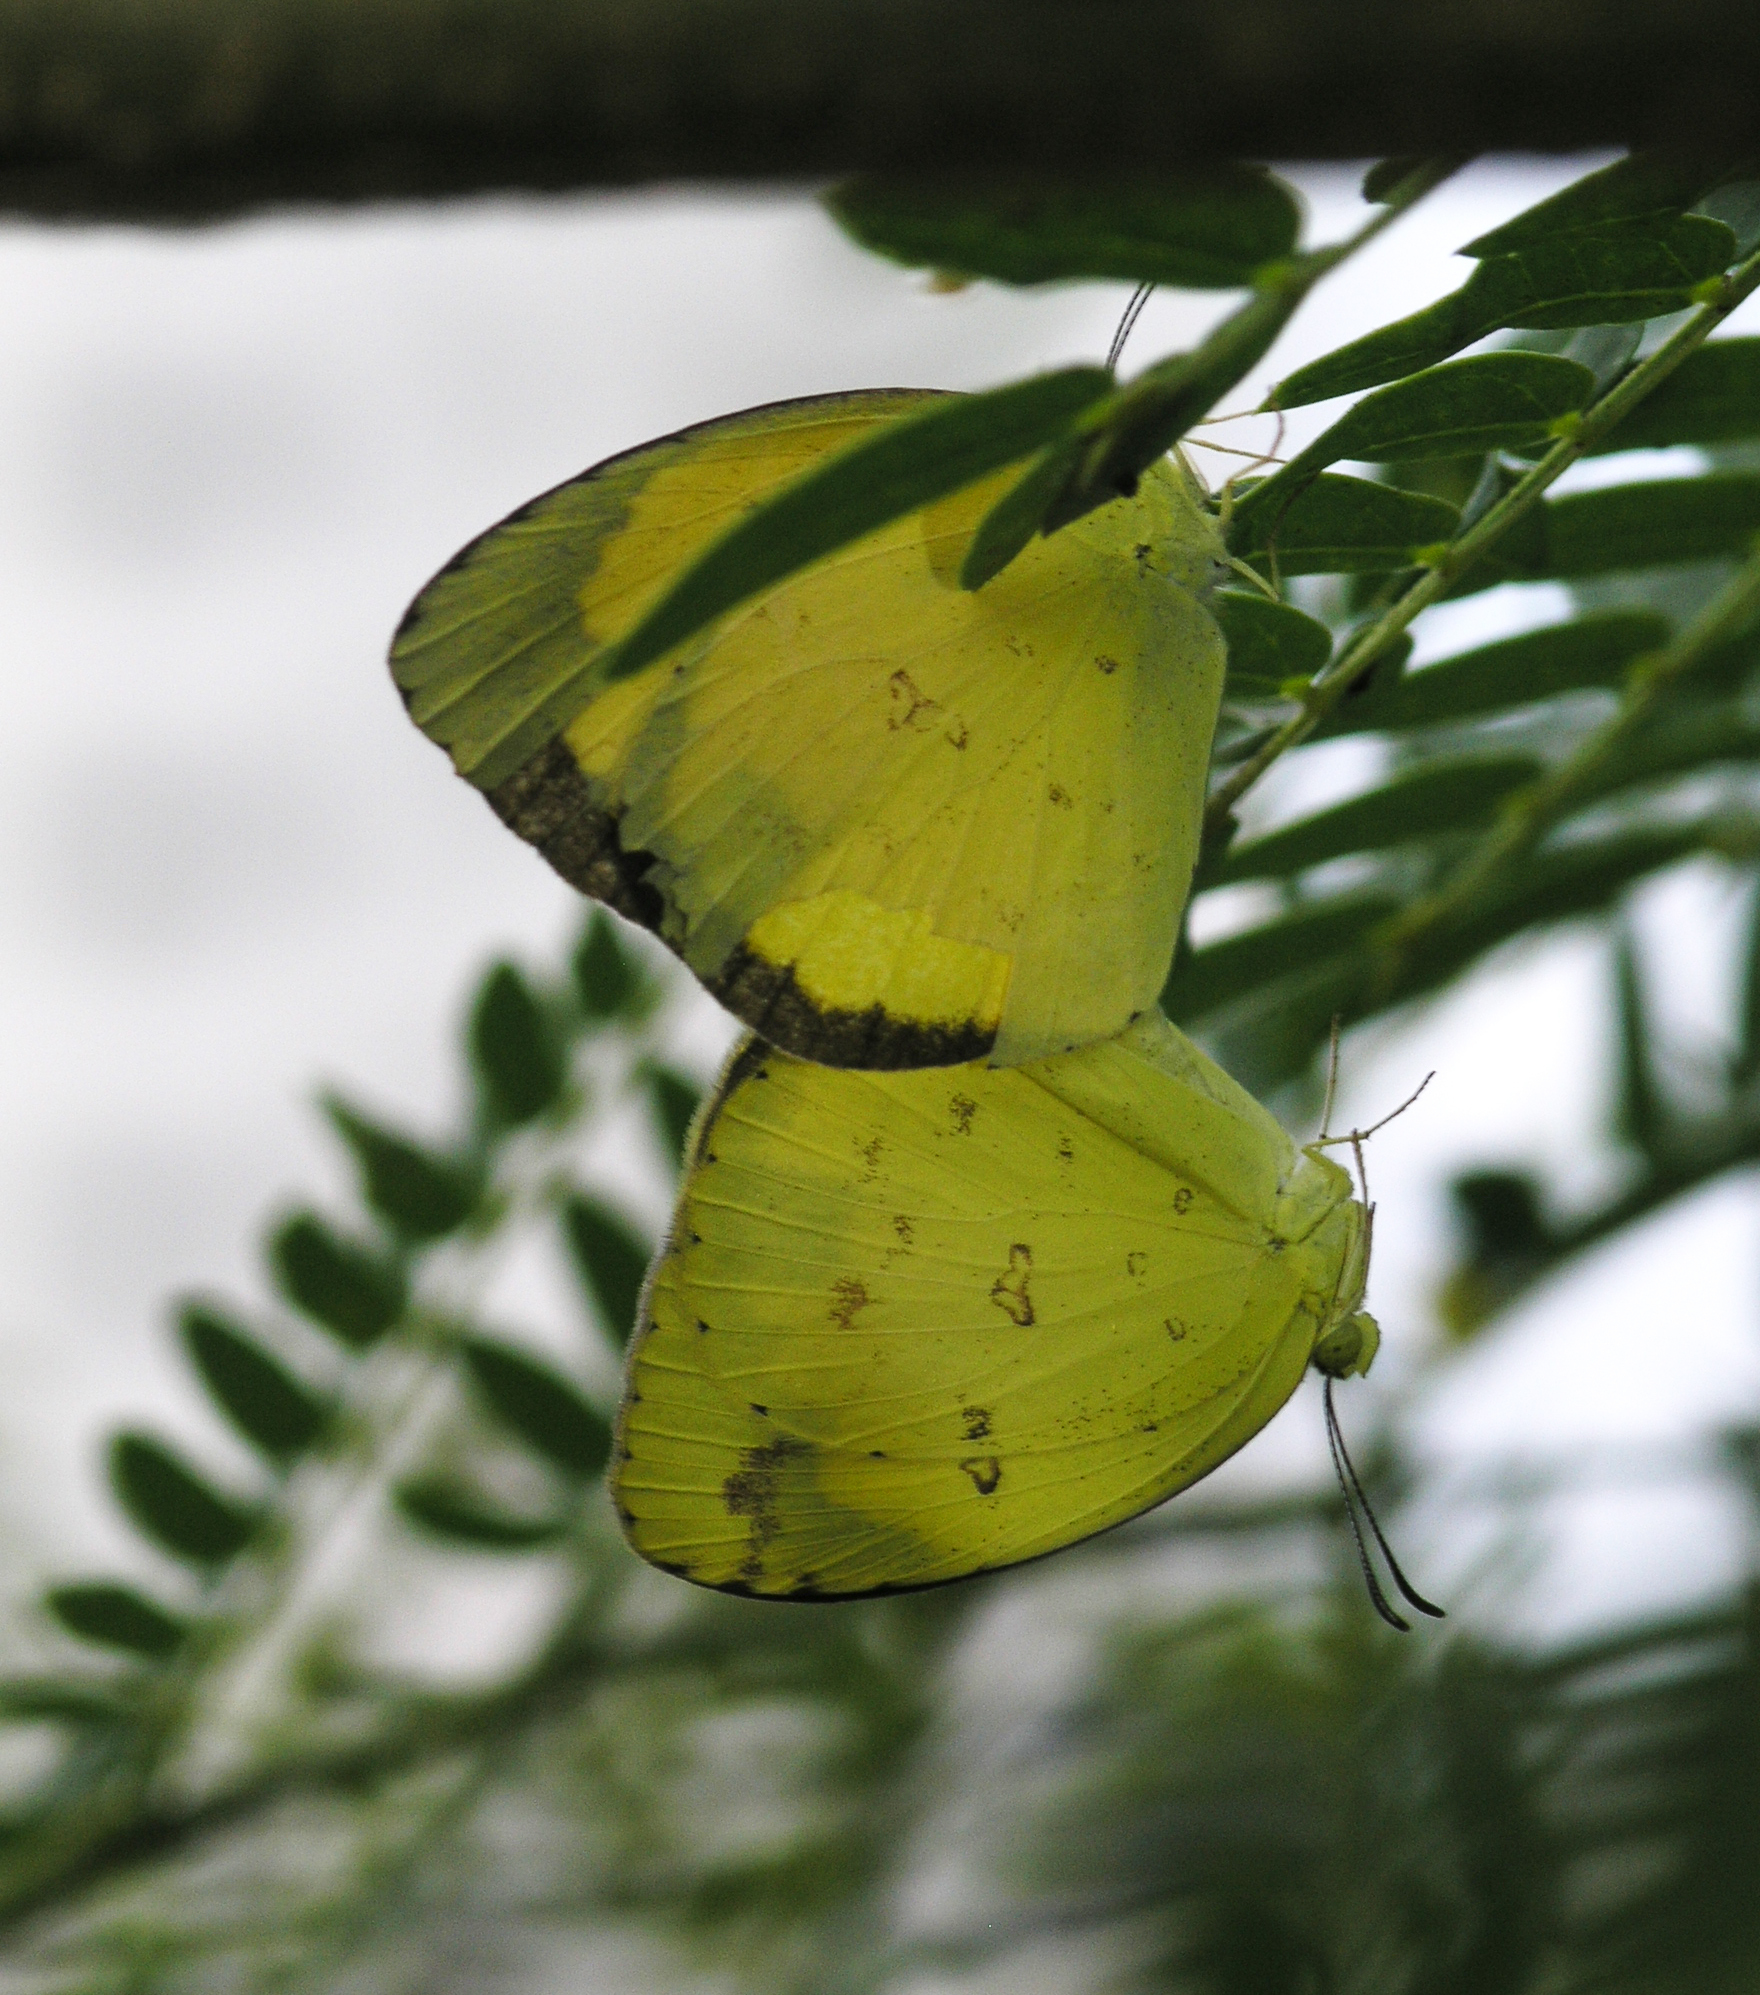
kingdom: Animalia
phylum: Arthropoda
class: Insecta
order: Lepidoptera
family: Pieridae
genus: Eurema
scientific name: Eurema hecabe
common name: Pale grass yellow
